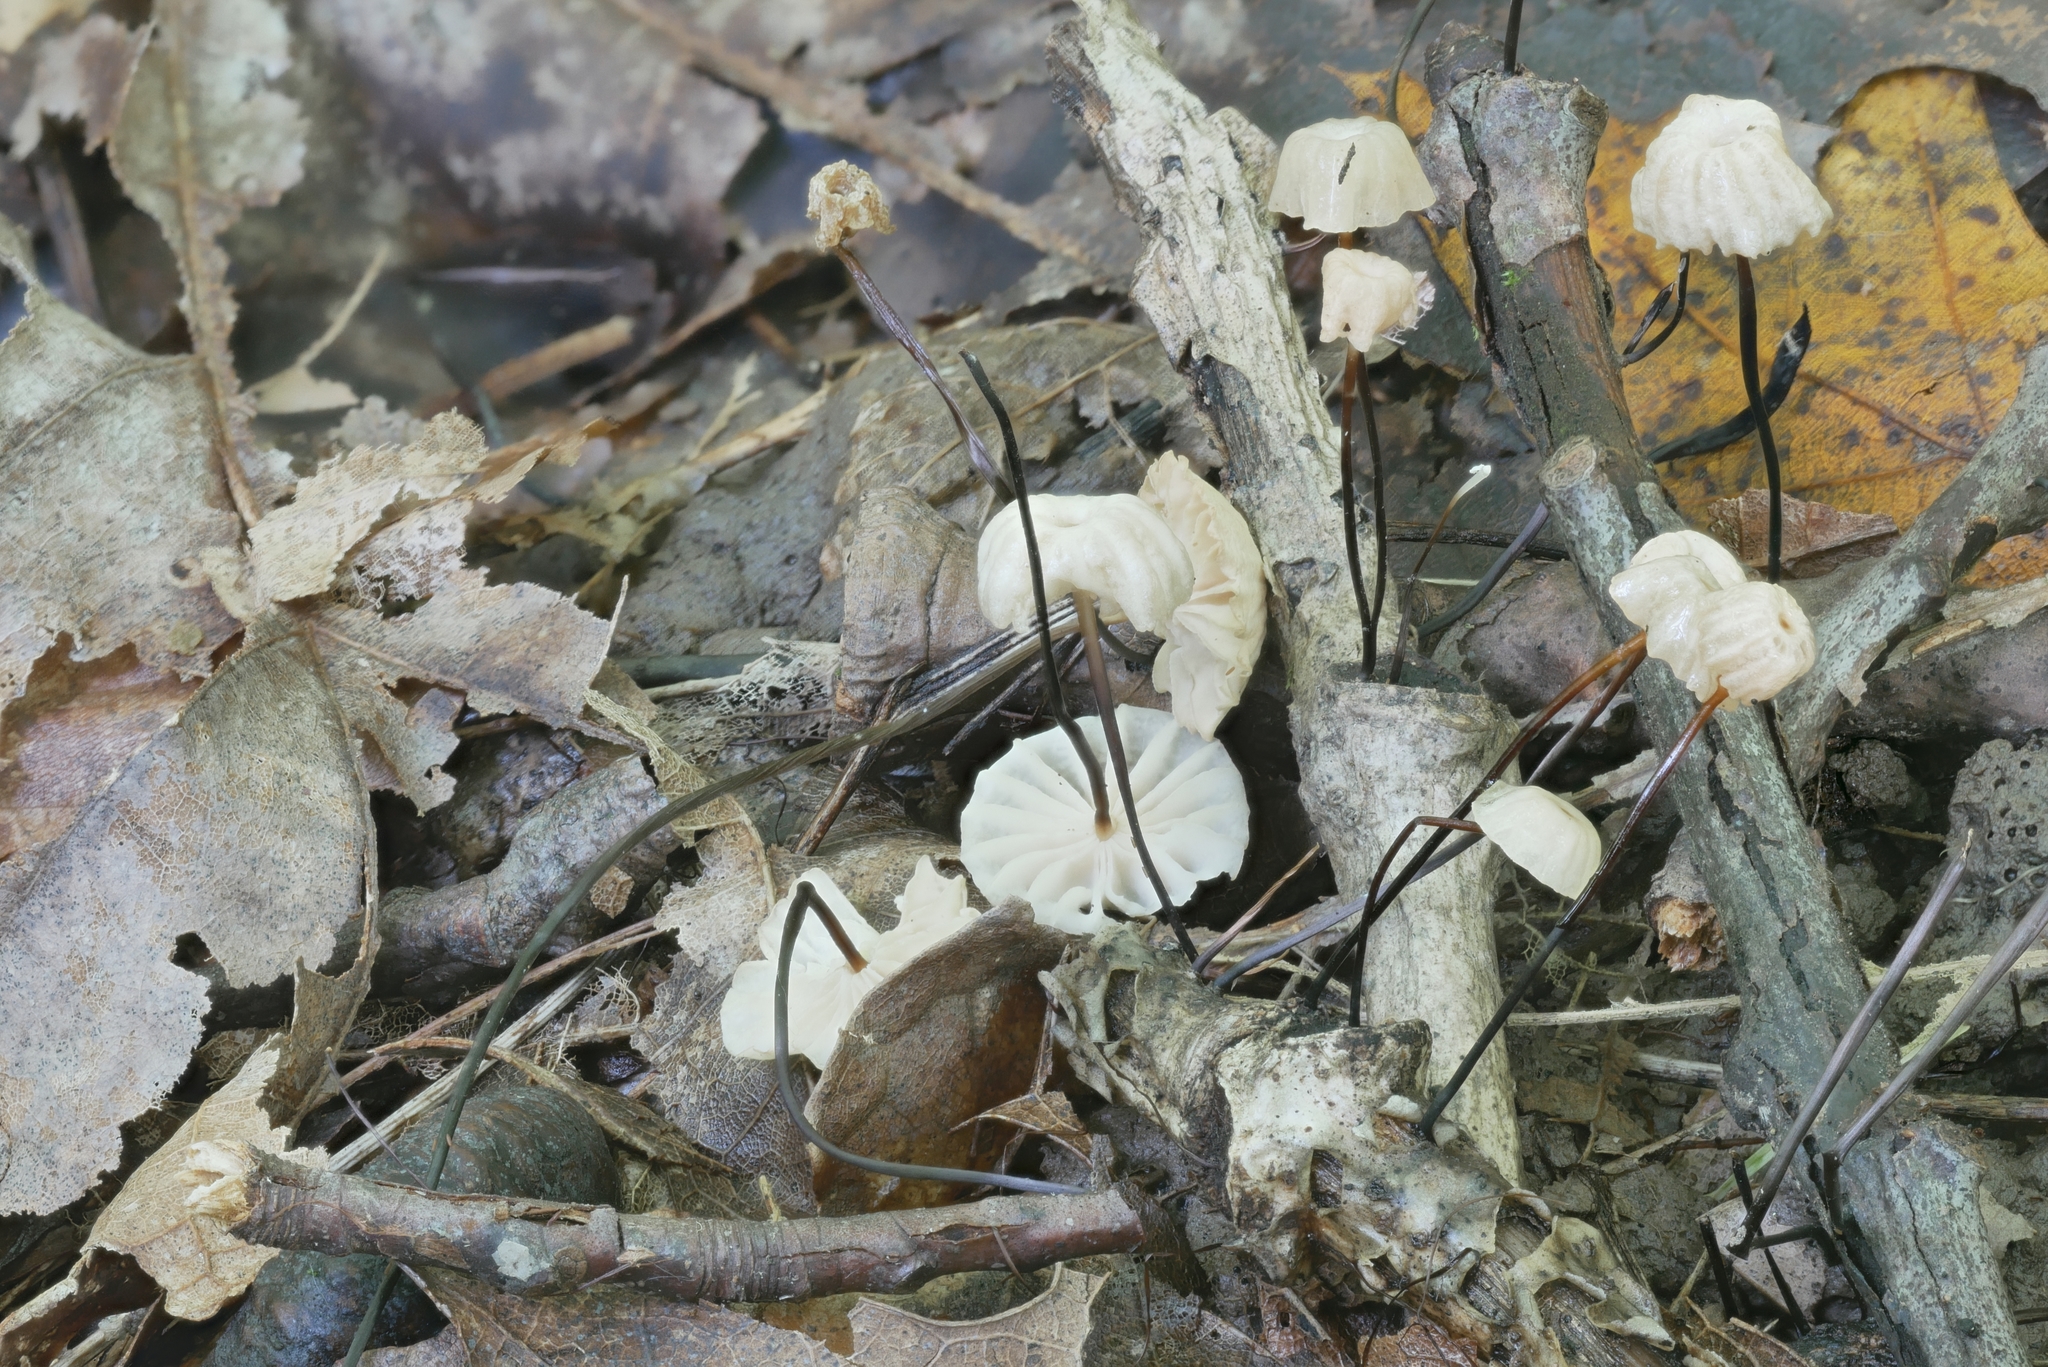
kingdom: Fungi
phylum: Basidiomycota
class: Agaricomycetes
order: Agaricales
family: Marasmiaceae
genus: Marasmius
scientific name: Marasmius rotula
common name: Collared parachute
